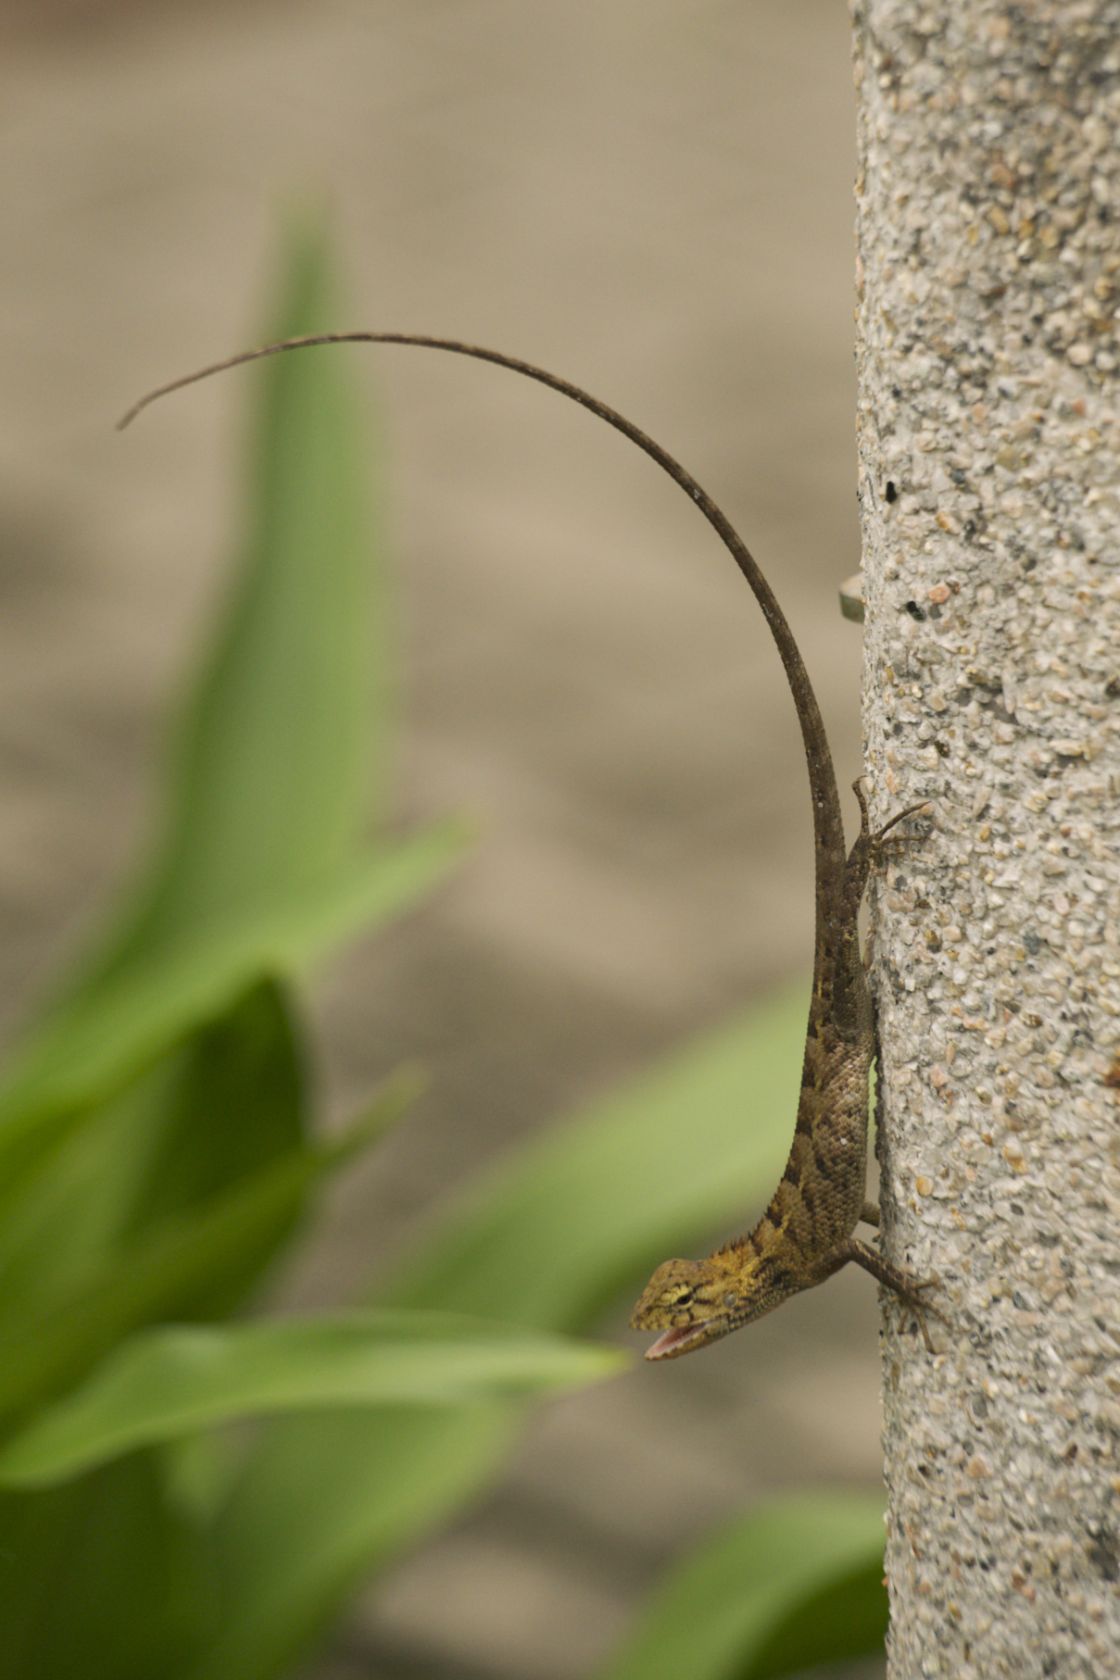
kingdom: Animalia
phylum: Chordata
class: Squamata
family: Agamidae
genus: Calotes
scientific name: Calotes versicolor
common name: Oriental garden lizard
